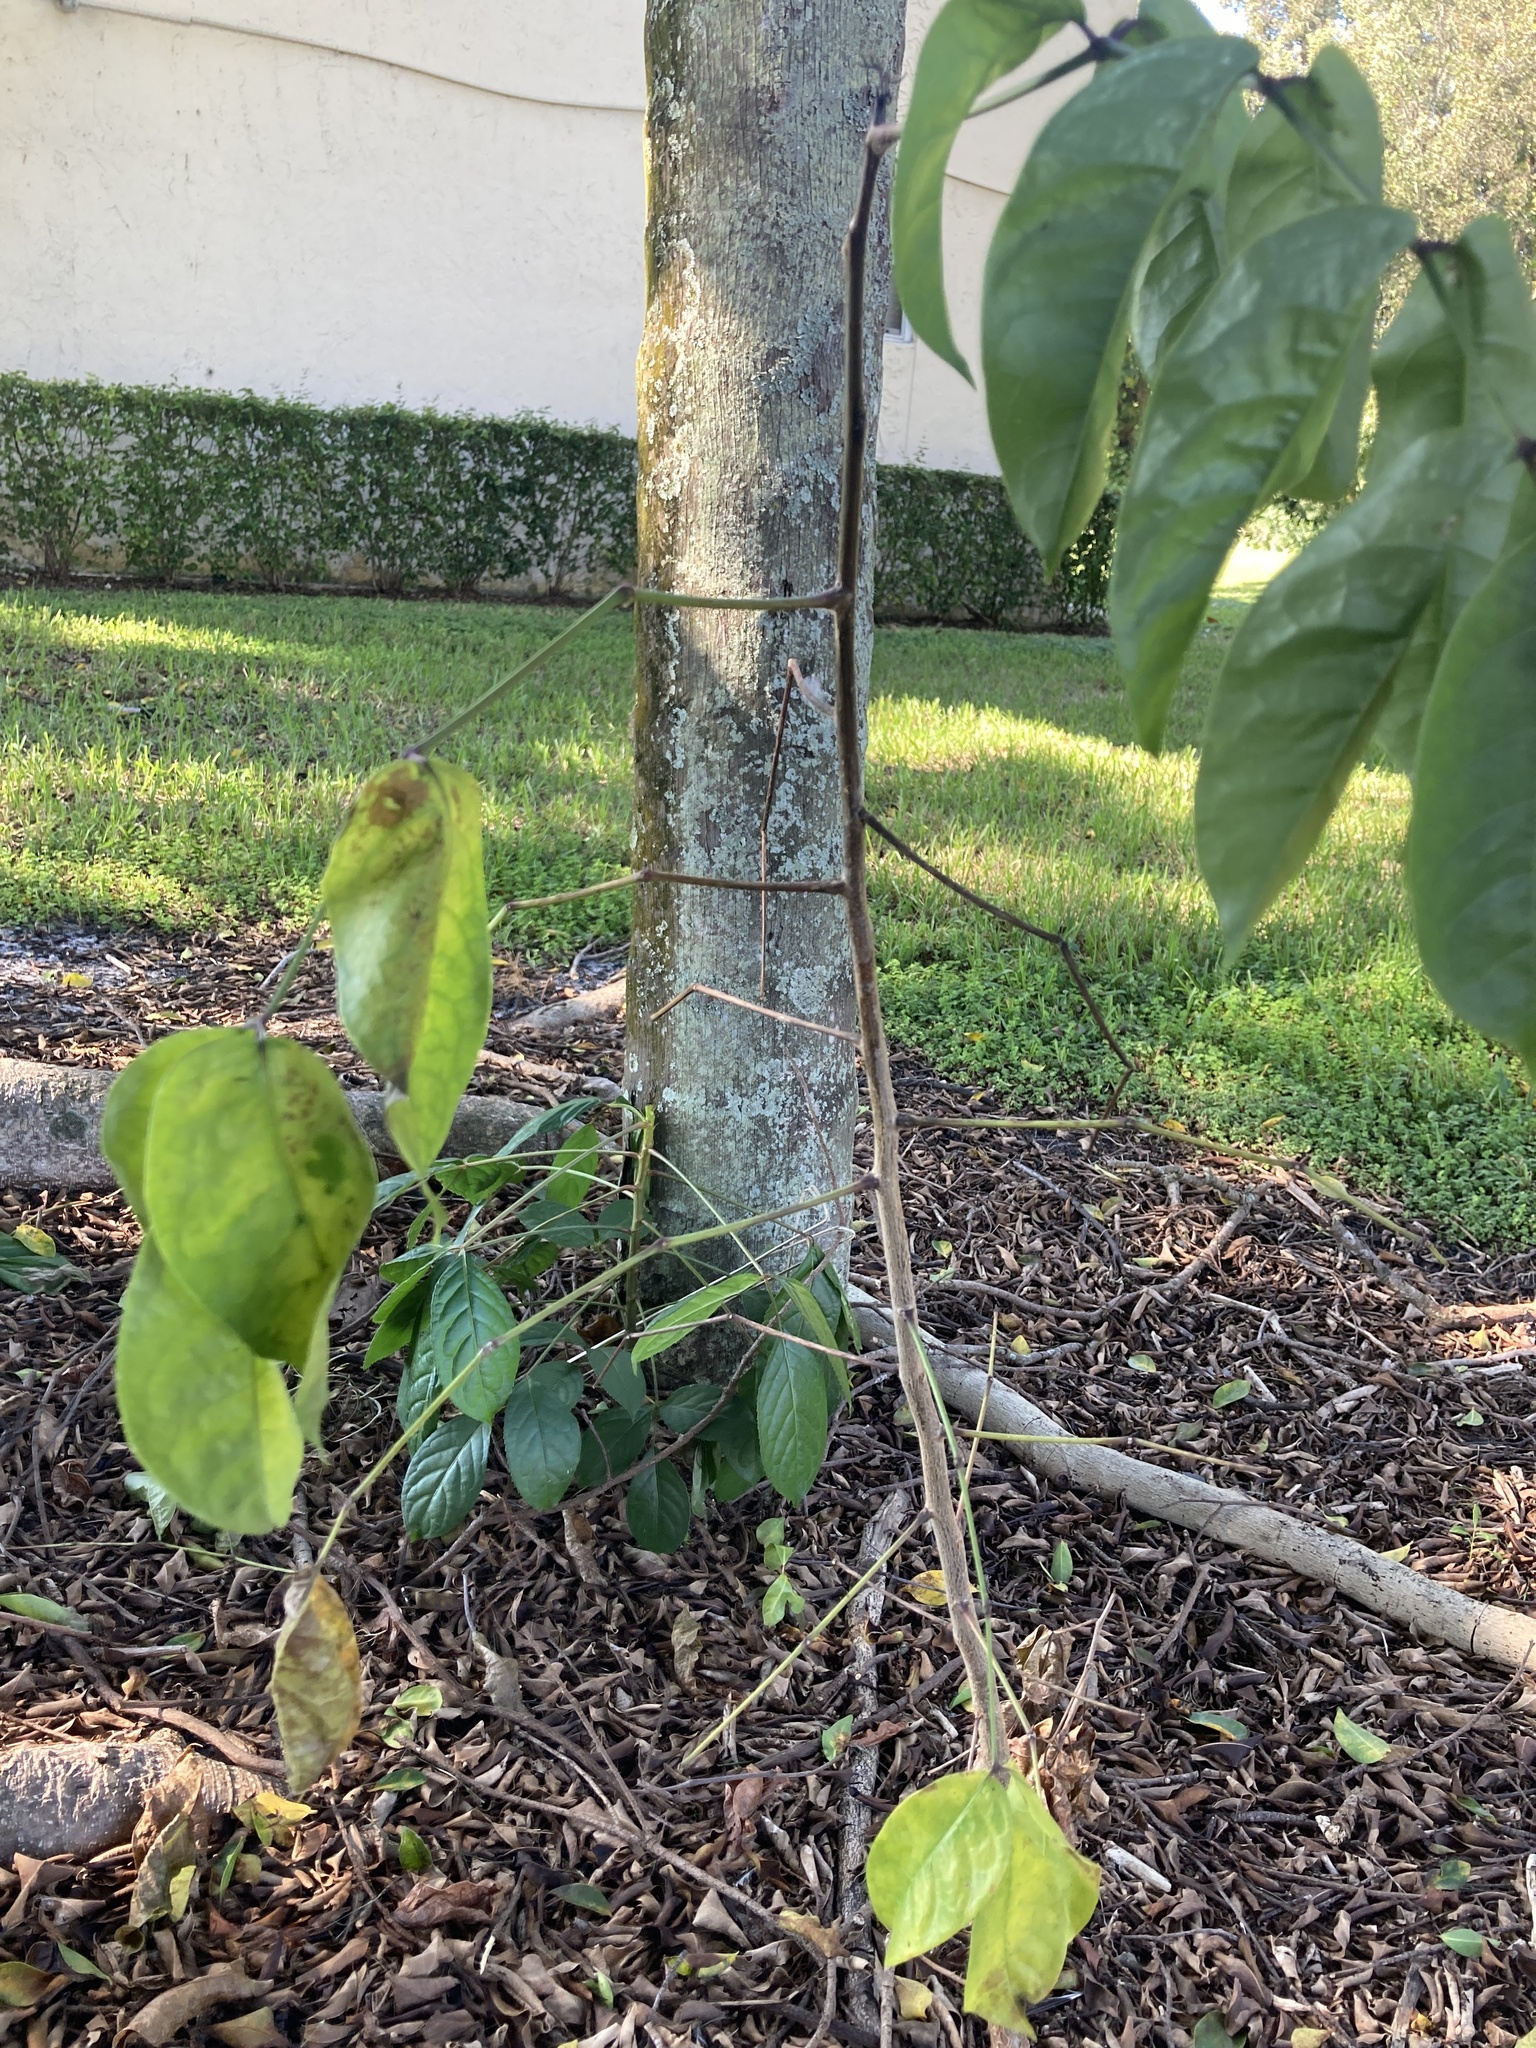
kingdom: Plantae
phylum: Tracheophyta
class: Magnoliopsida
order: Sapindales
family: Burseraceae
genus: Bursera
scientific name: Bursera simaruba
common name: Turpentine tree
